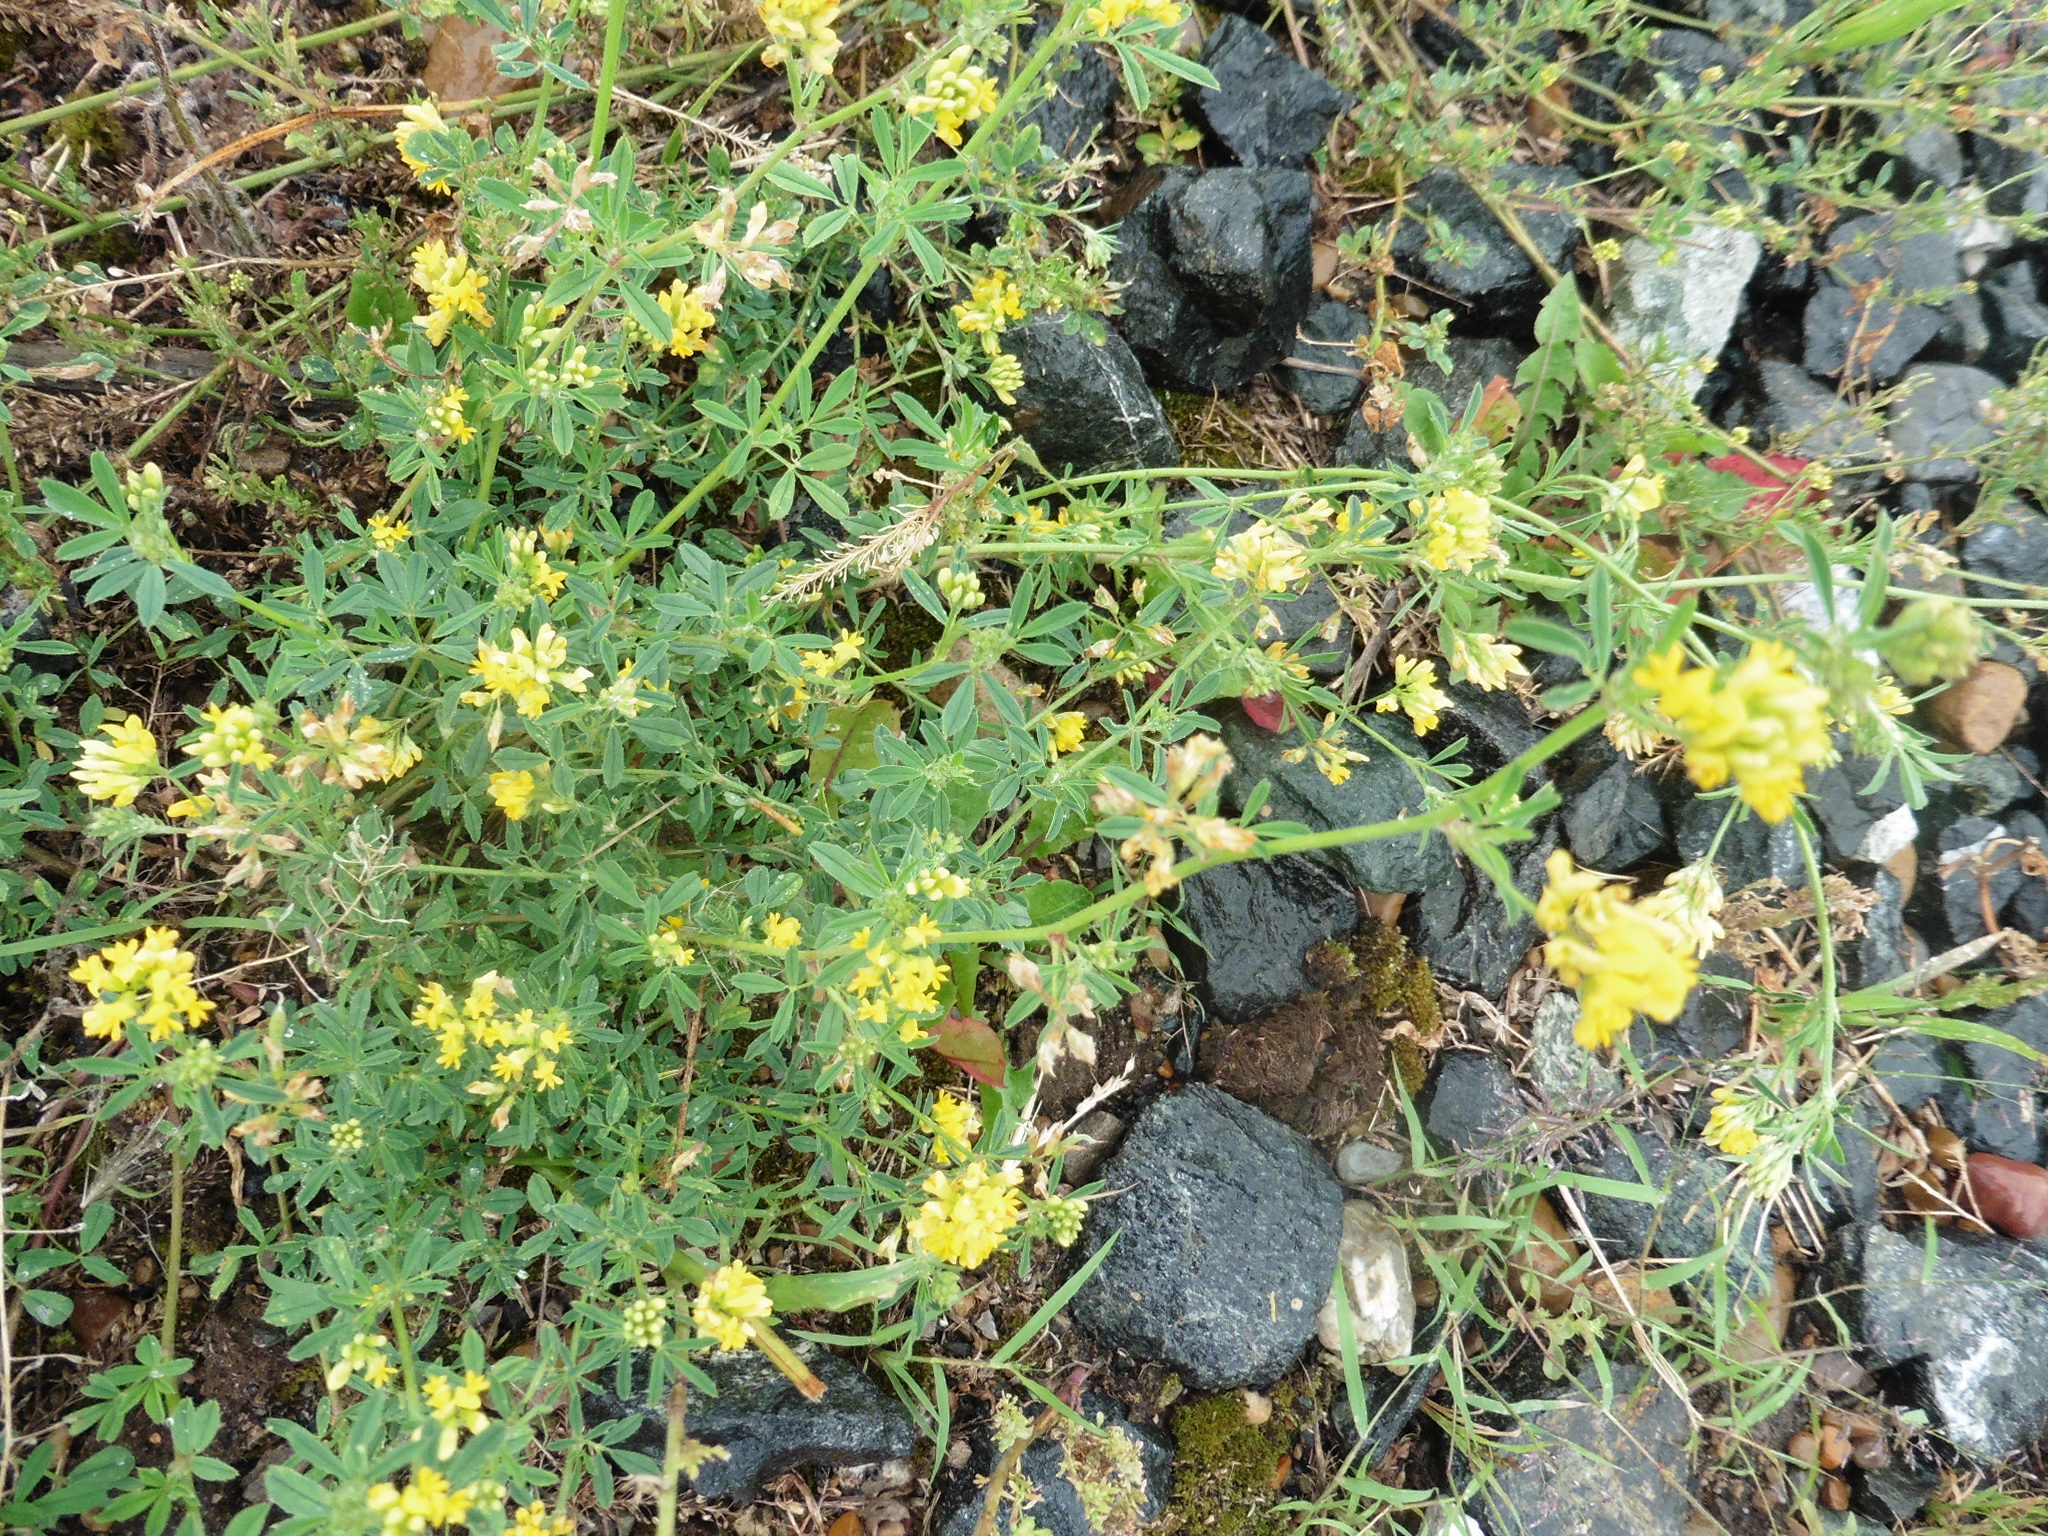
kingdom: Plantae
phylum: Tracheophyta
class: Magnoliopsida
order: Fabales
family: Fabaceae
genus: Medicago
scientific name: Medicago falcata
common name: Sickle medick
